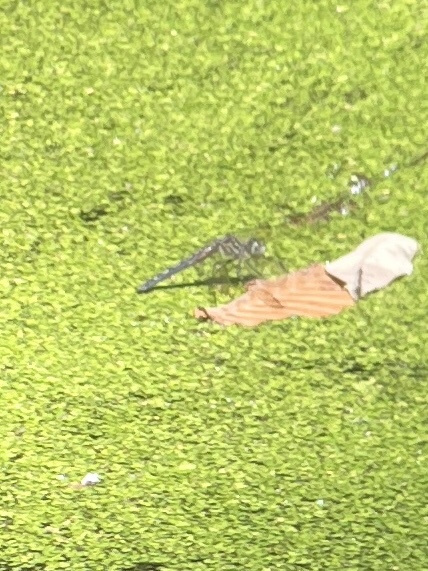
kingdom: Animalia
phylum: Arthropoda
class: Insecta
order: Odonata
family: Libellulidae
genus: Pachydiplax
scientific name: Pachydiplax longipennis
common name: Blue dasher
